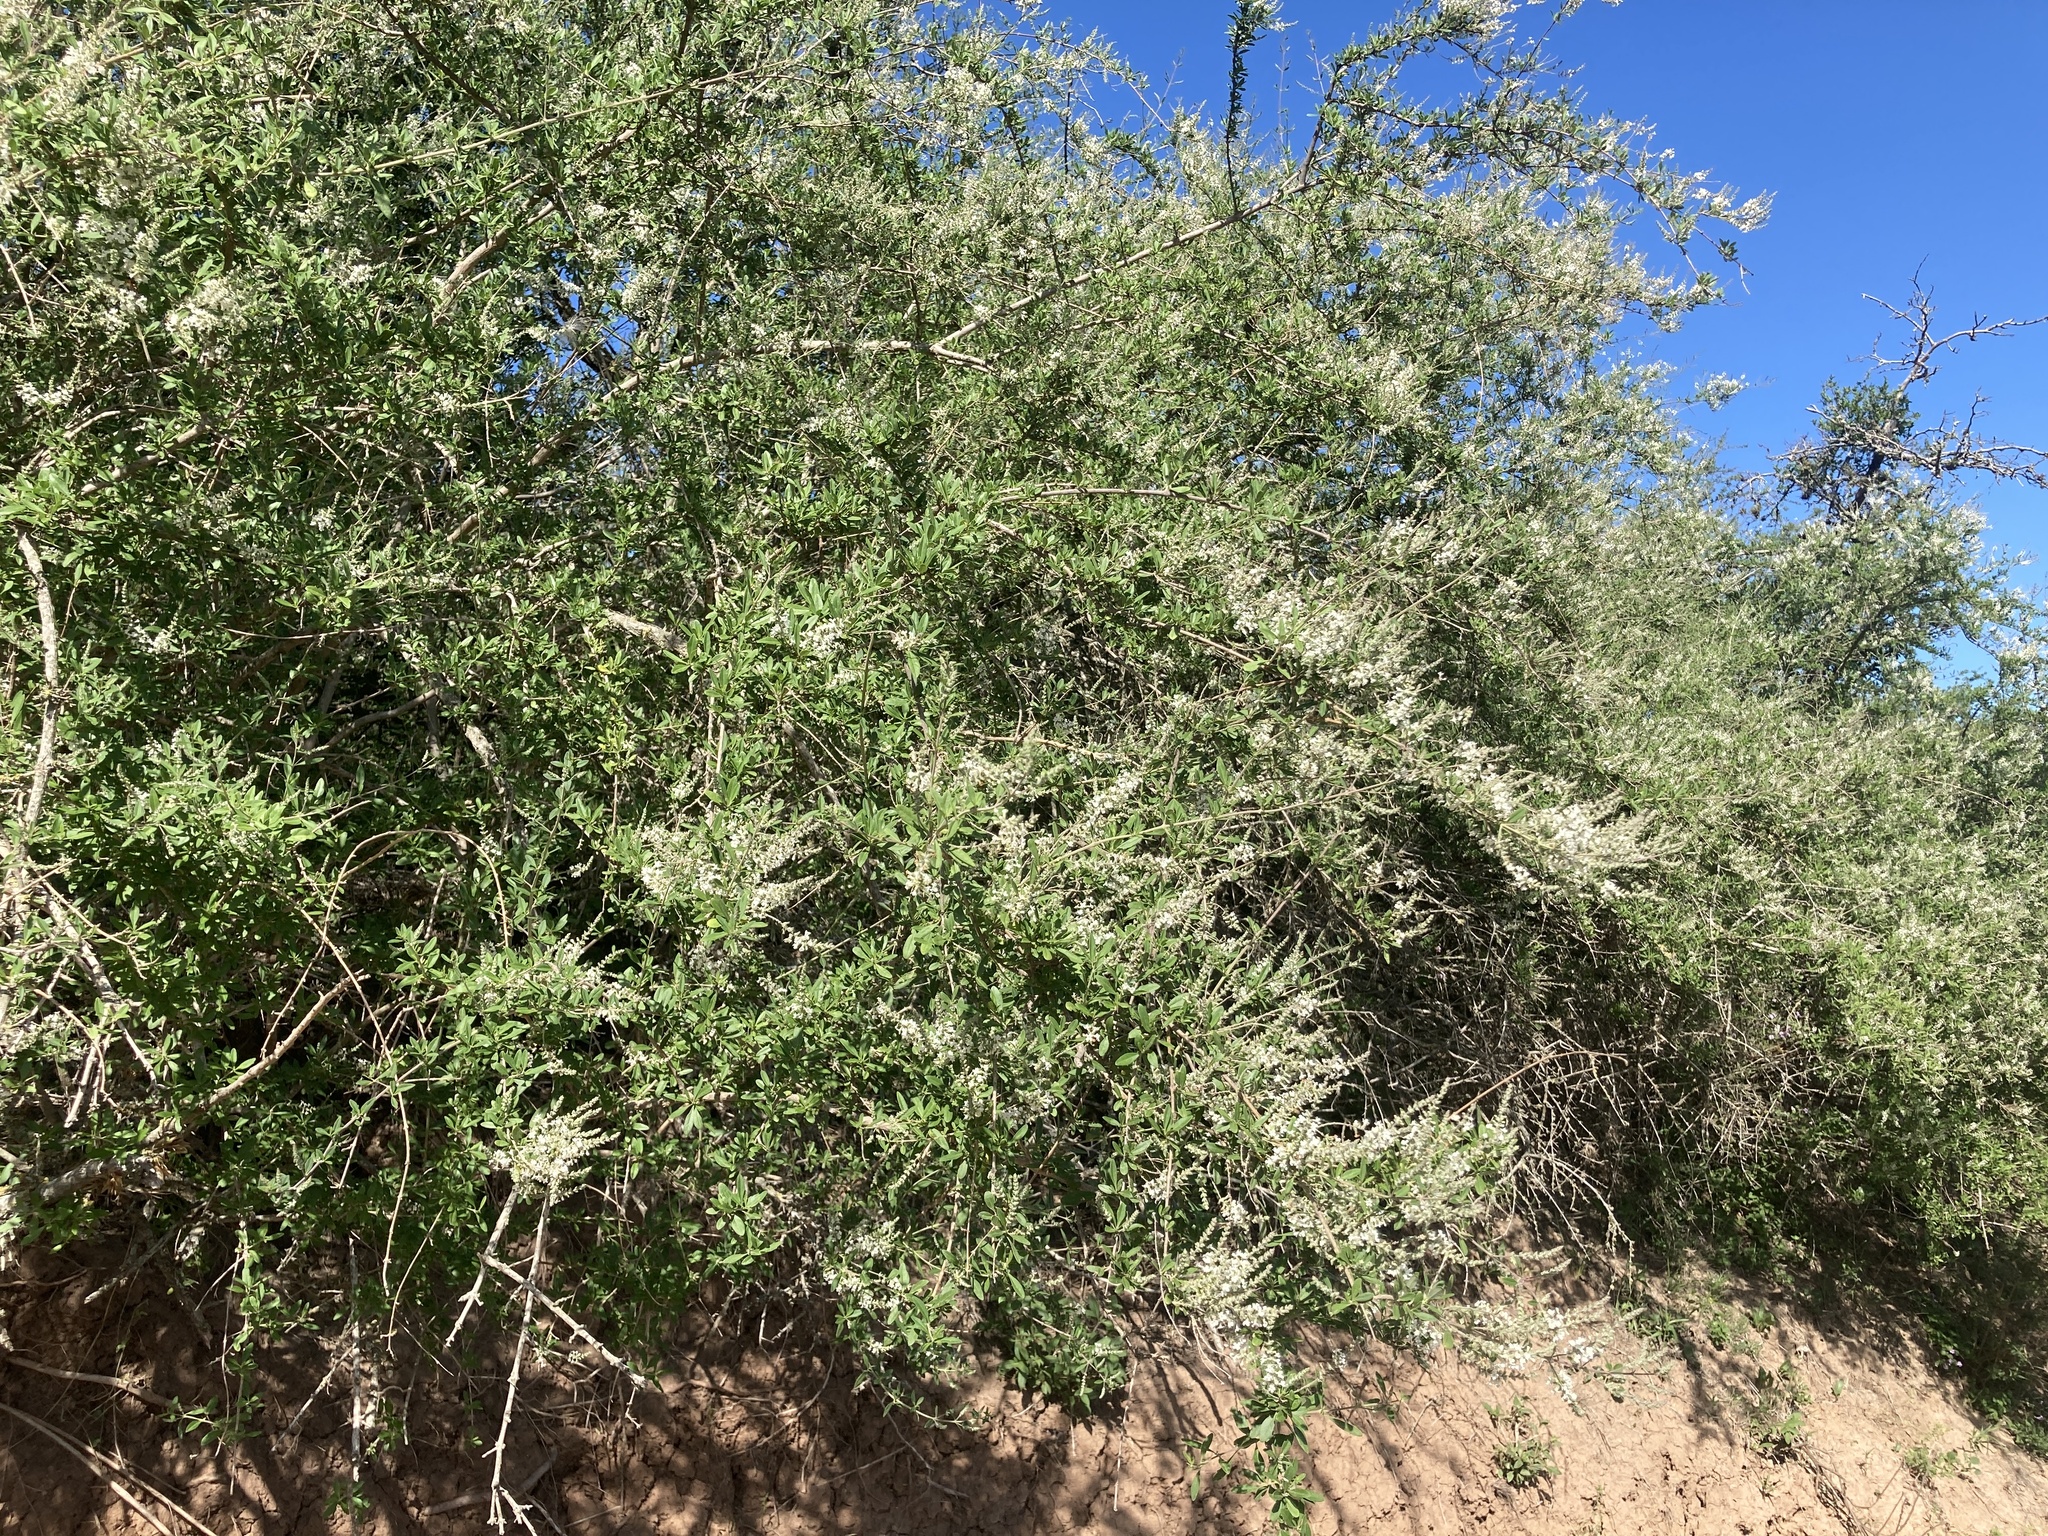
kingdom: Plantae
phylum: Tracheophyta
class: Magnoliopsida
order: Lamiales
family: Verbenaceae
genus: Aloysia
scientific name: Aloysia gratissima
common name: Common bee-brush
